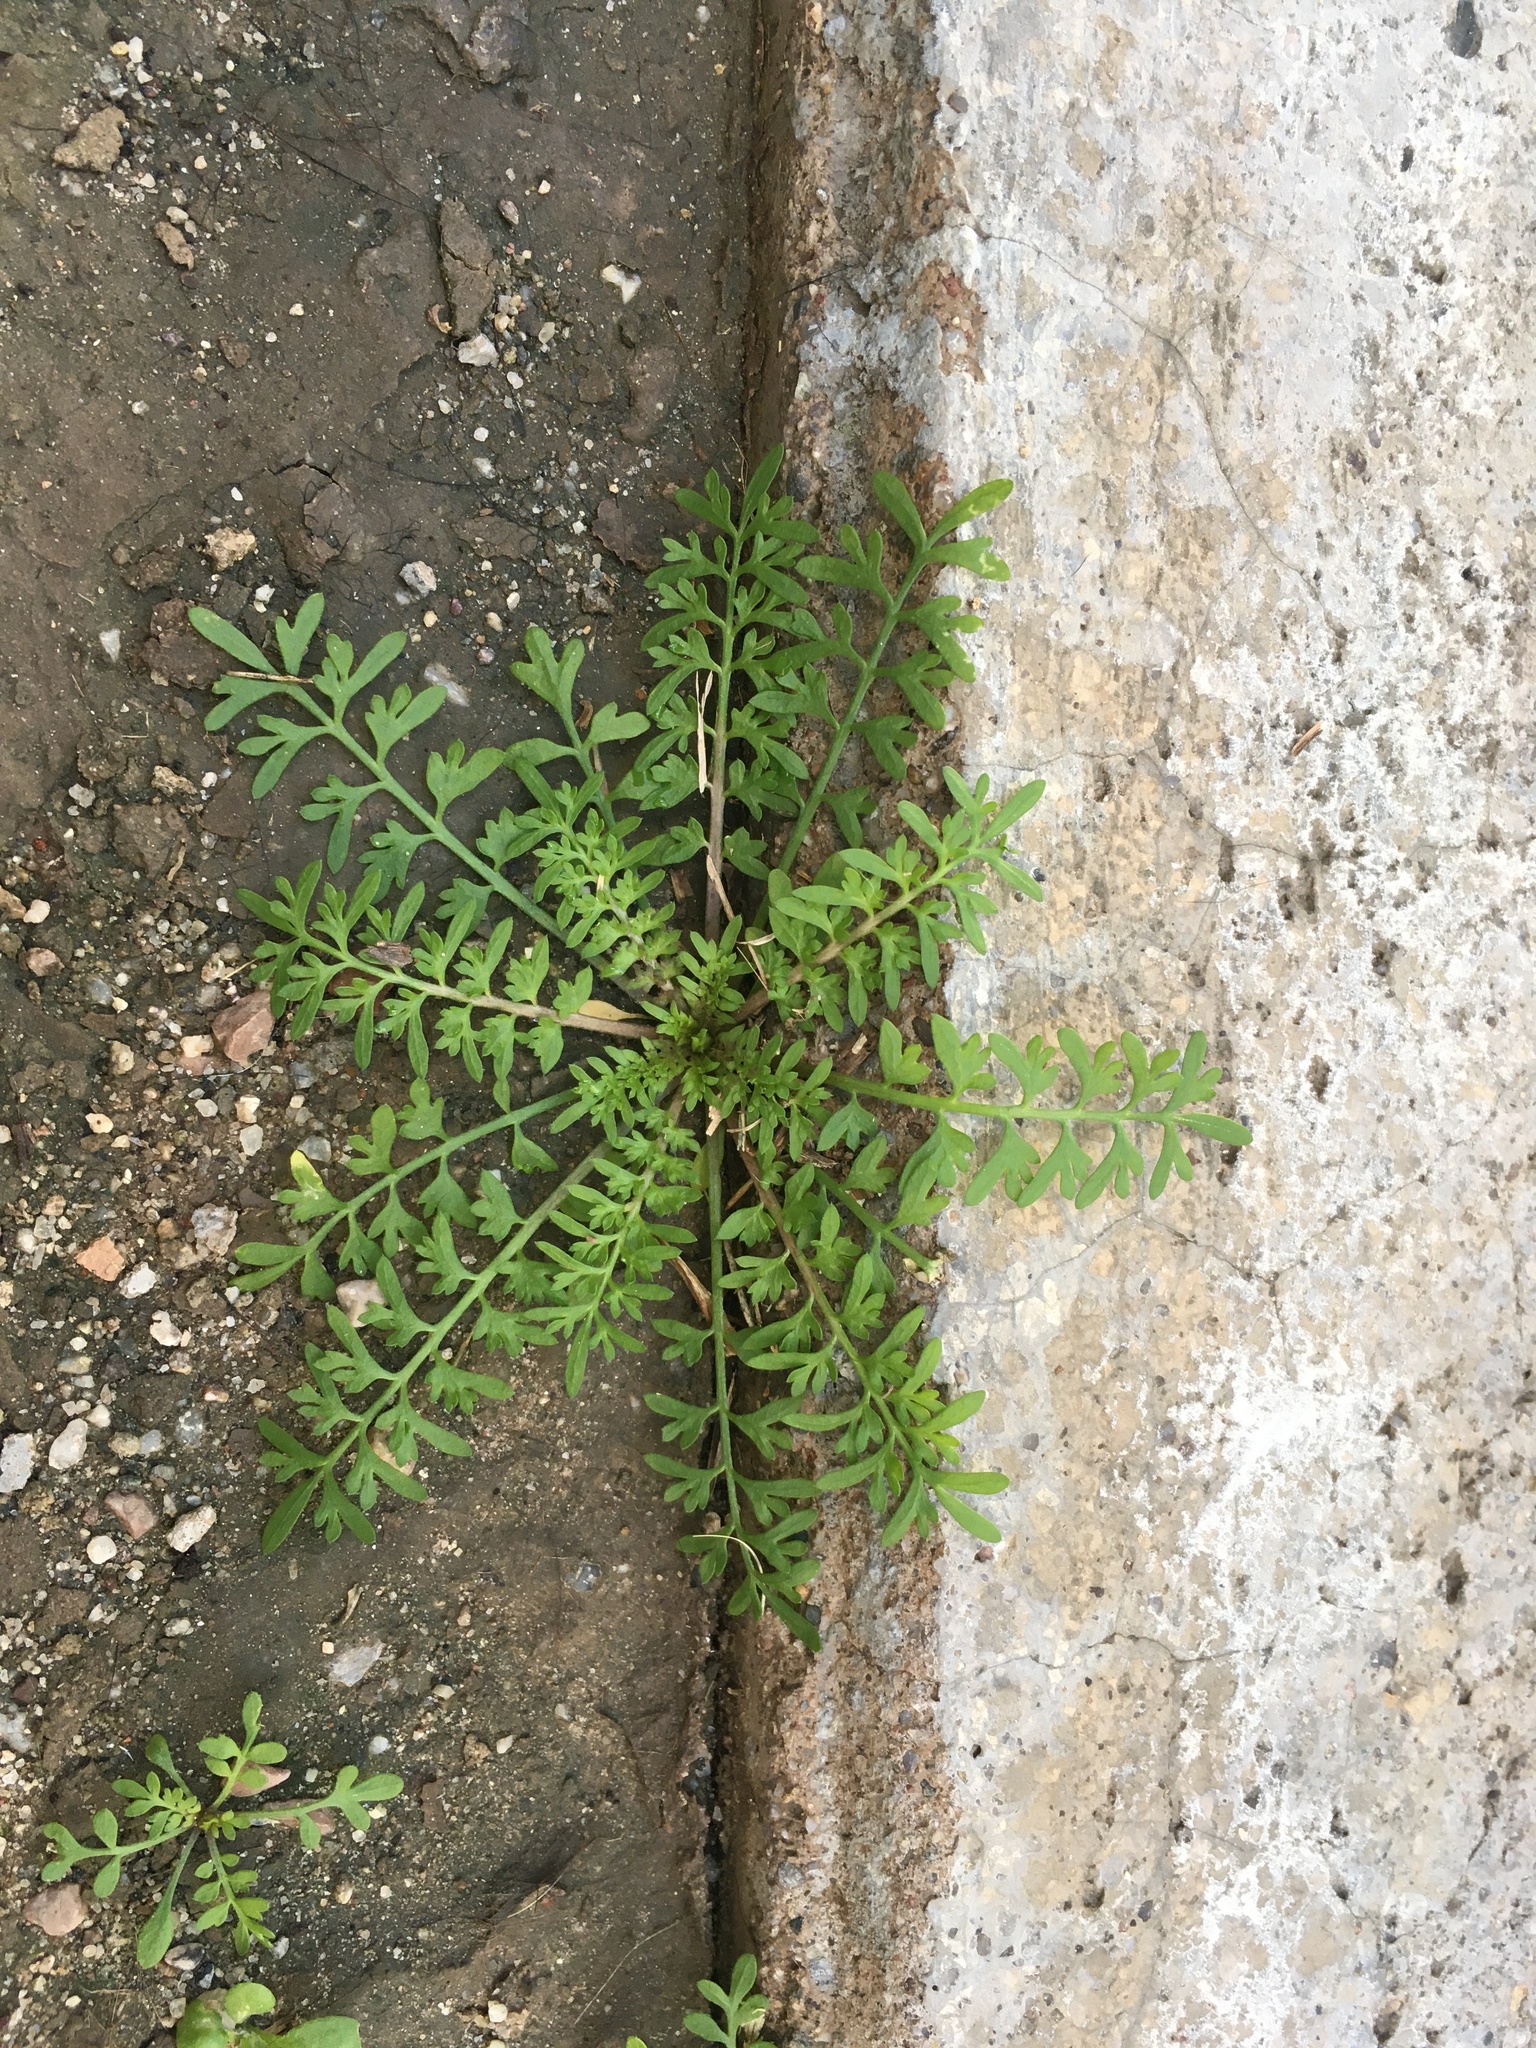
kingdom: Plantae
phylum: Tracheophyta
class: Magnoliopsida
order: Brassicales
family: Brassicaceae
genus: Lepidium
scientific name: Lepidium didymum
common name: Lesser swinecress
